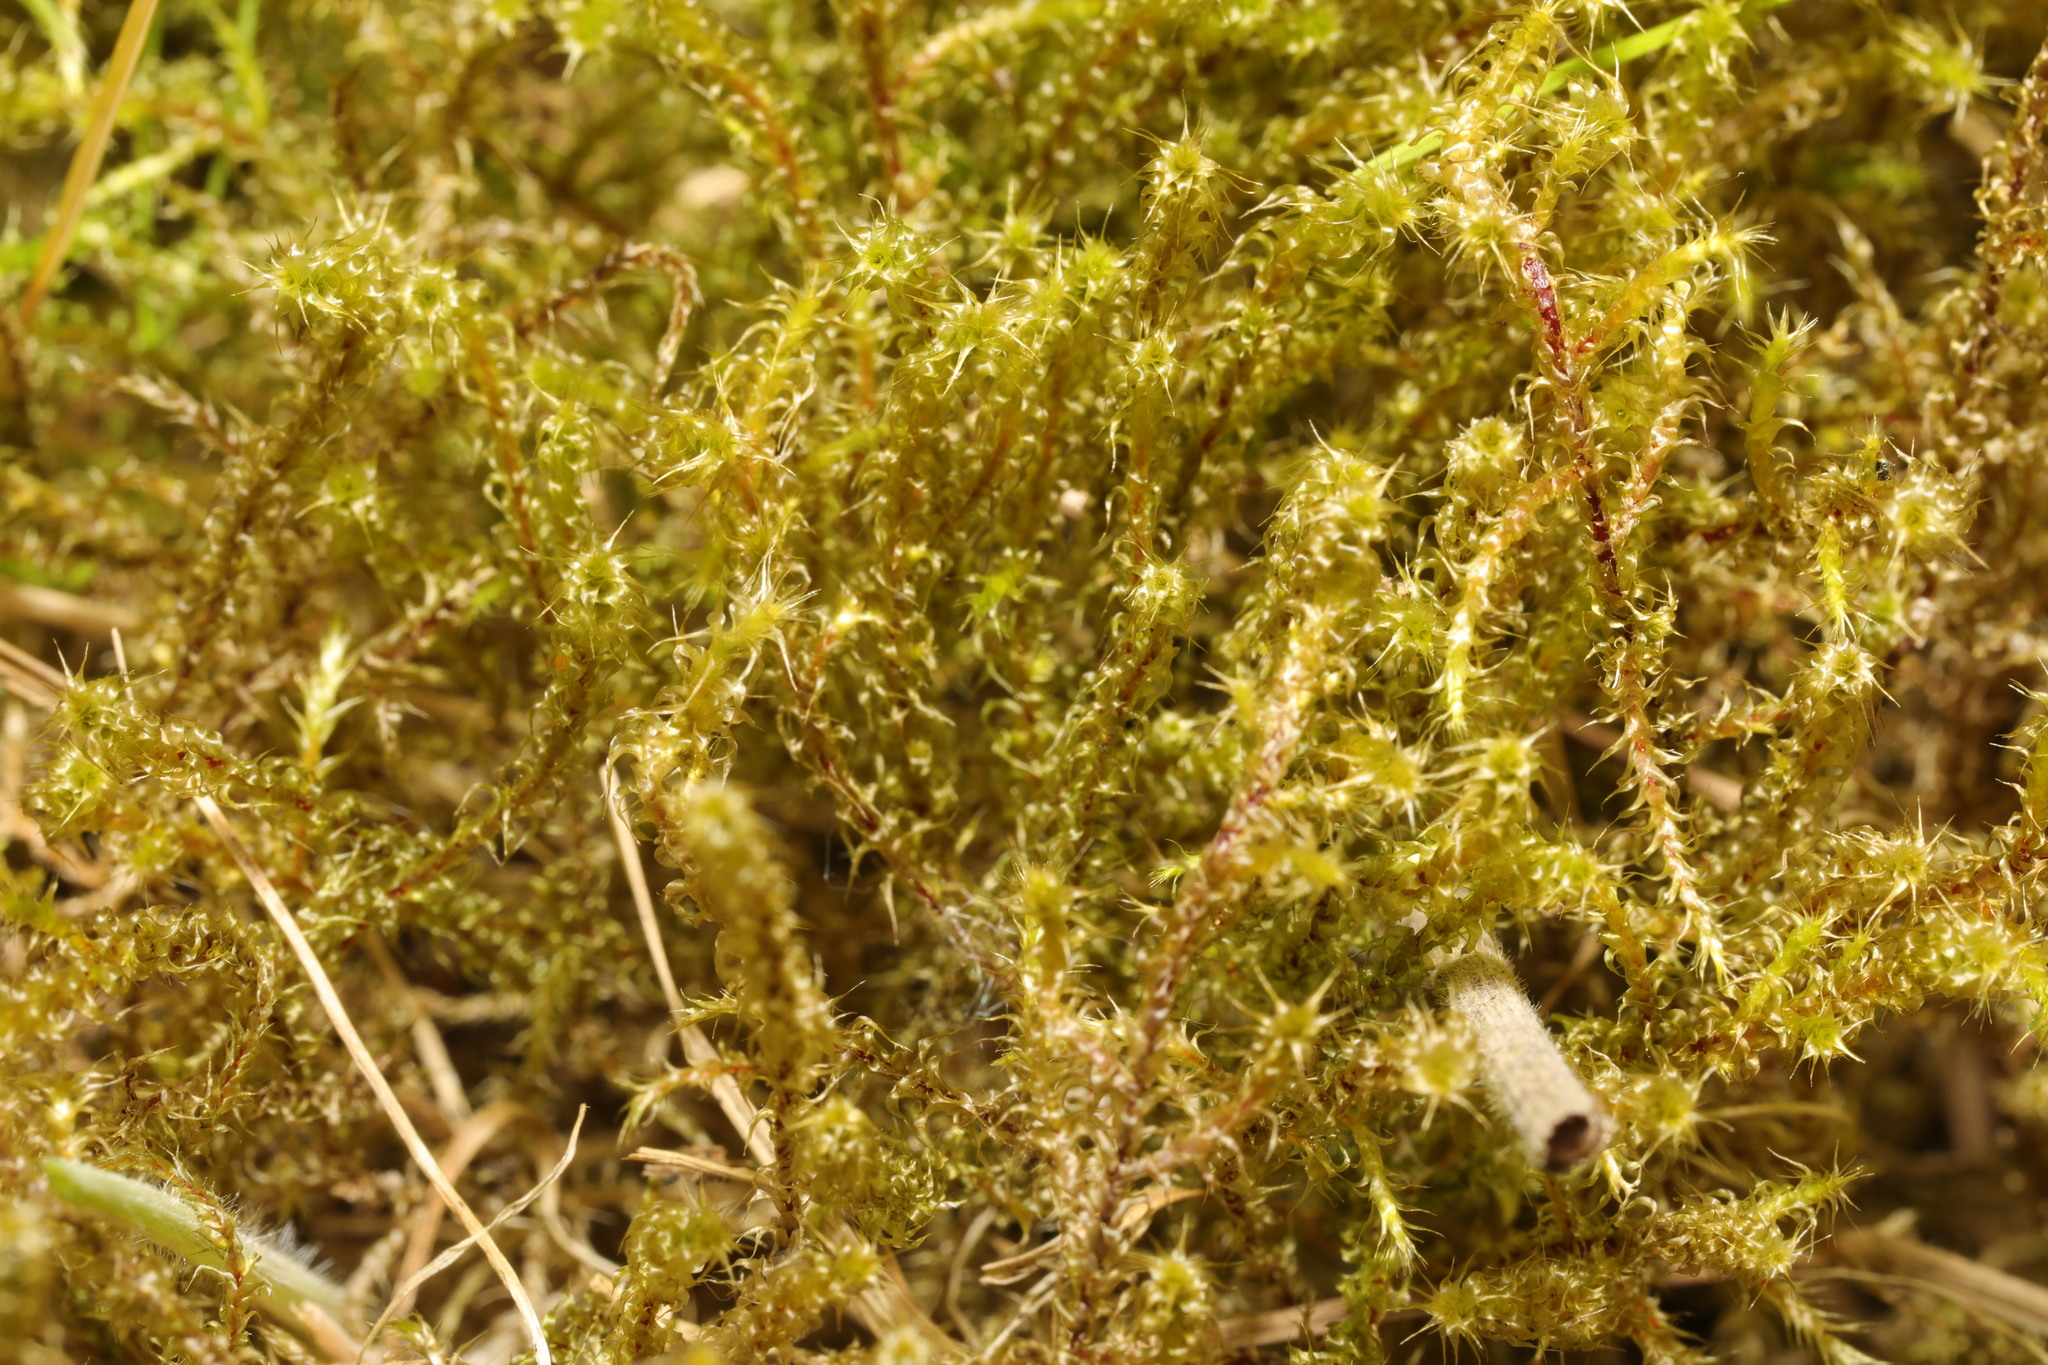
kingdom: Plantae
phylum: Bryophyta
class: Bryopsida
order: Hypnales
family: Hylocomiaceae
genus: Rhytidiadelphus
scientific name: Rhytidiadelphus squarrosus
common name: Springy turf-moss
